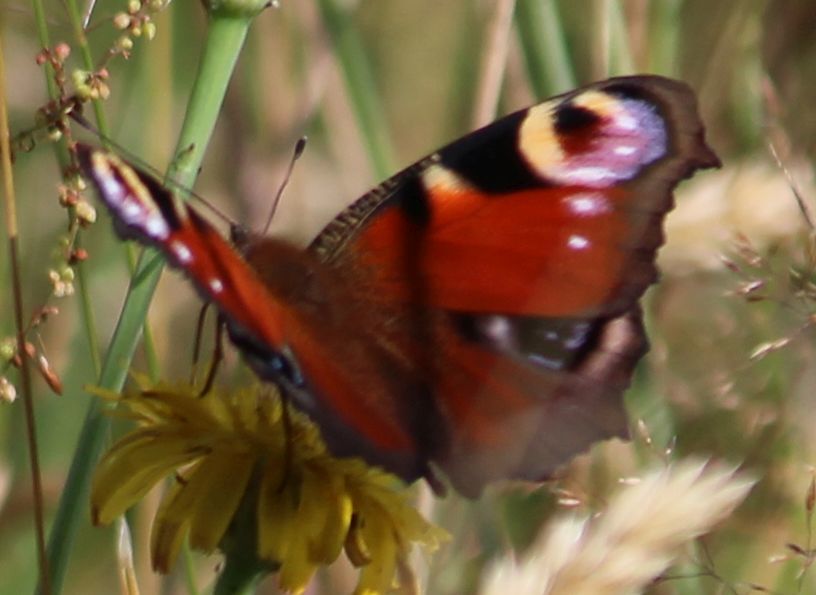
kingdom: Animalia
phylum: Arthropoda
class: Insecta
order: Lepidoptera
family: Nymphalidae
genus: Aglais
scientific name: Aglais io
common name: Peacock
